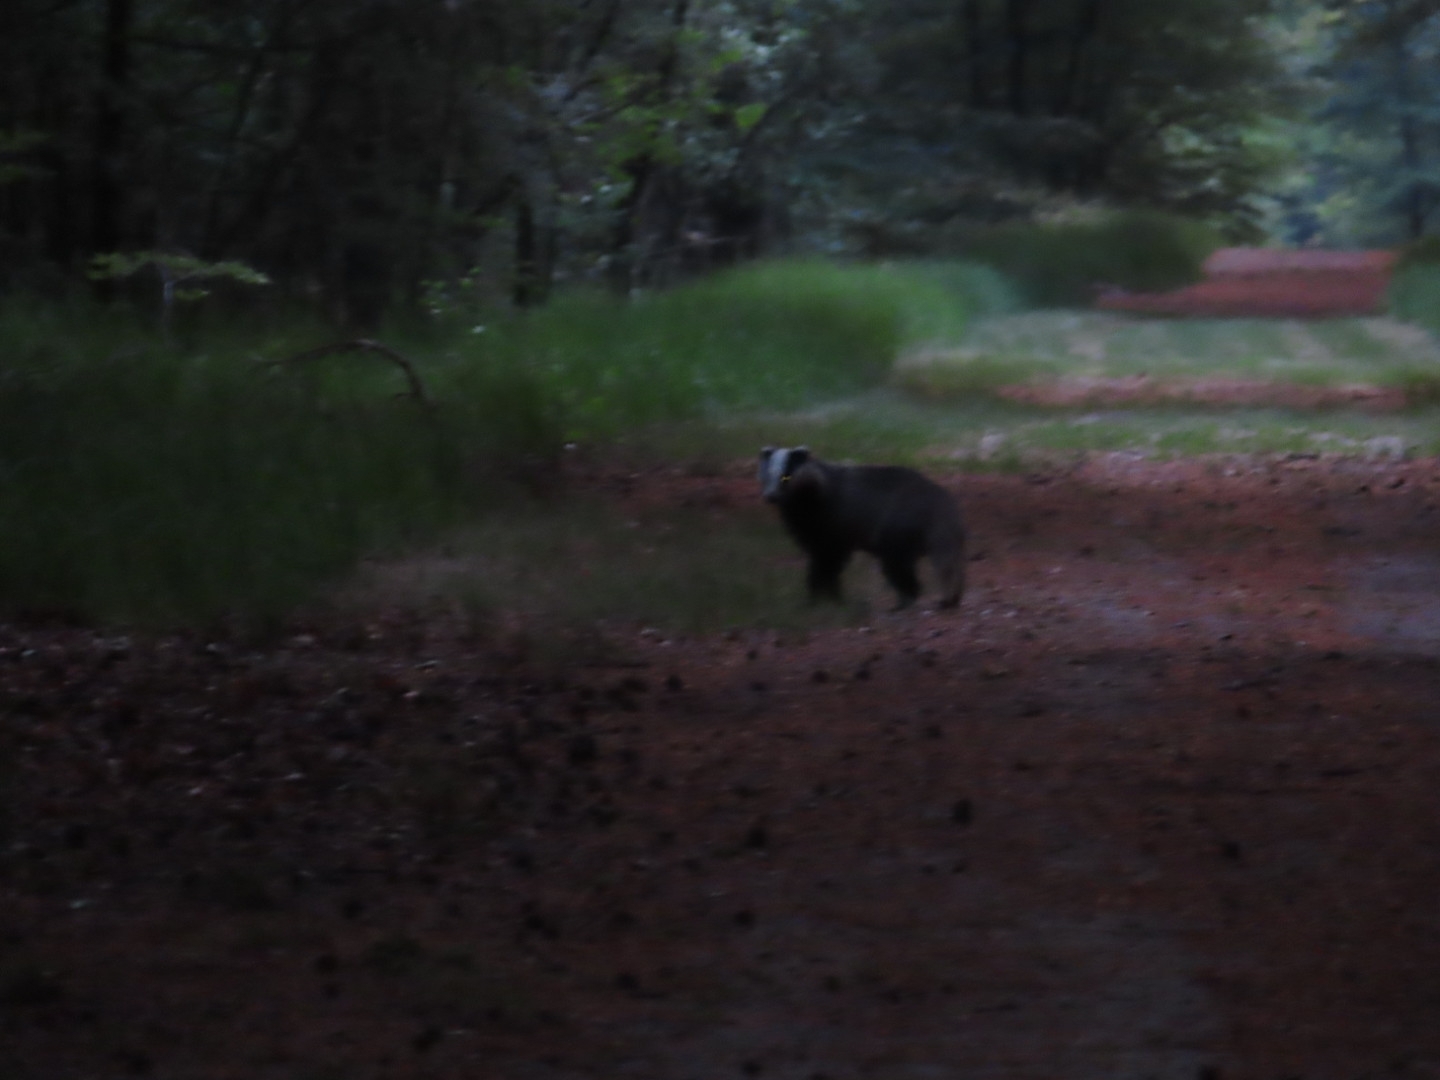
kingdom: Animalia
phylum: Chordata
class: Mammalia
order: Carnivora
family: Mustelidae
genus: Meles
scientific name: Meles meles
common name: Eurasian badger
